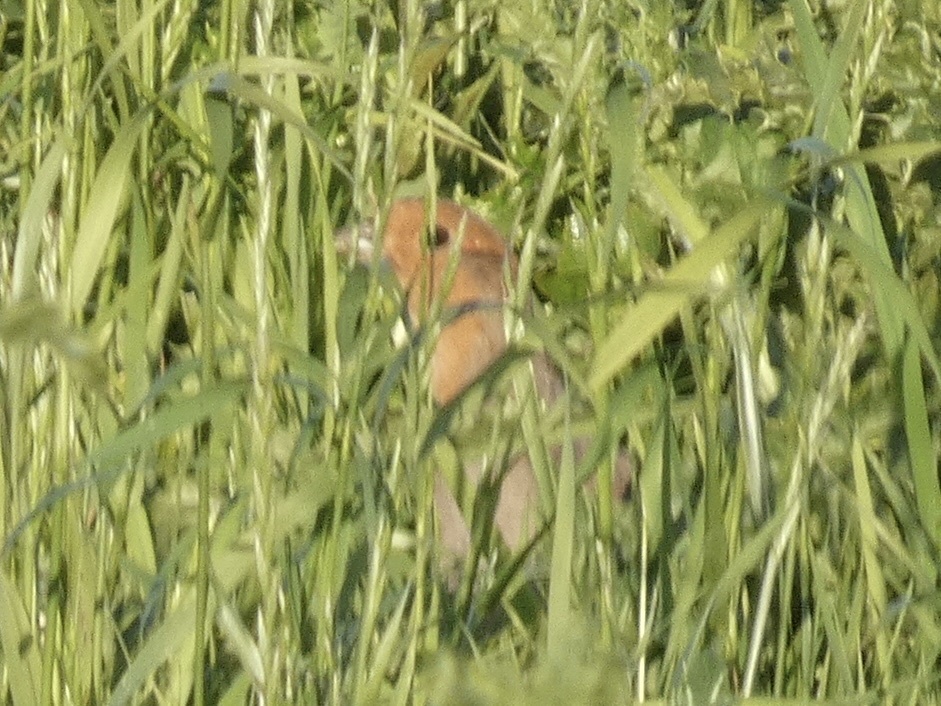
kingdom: Animalia
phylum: Chordata
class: Aves
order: Galliformes
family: Phasianidae
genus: Perdix
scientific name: Perdix perdix
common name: Grey partridge
